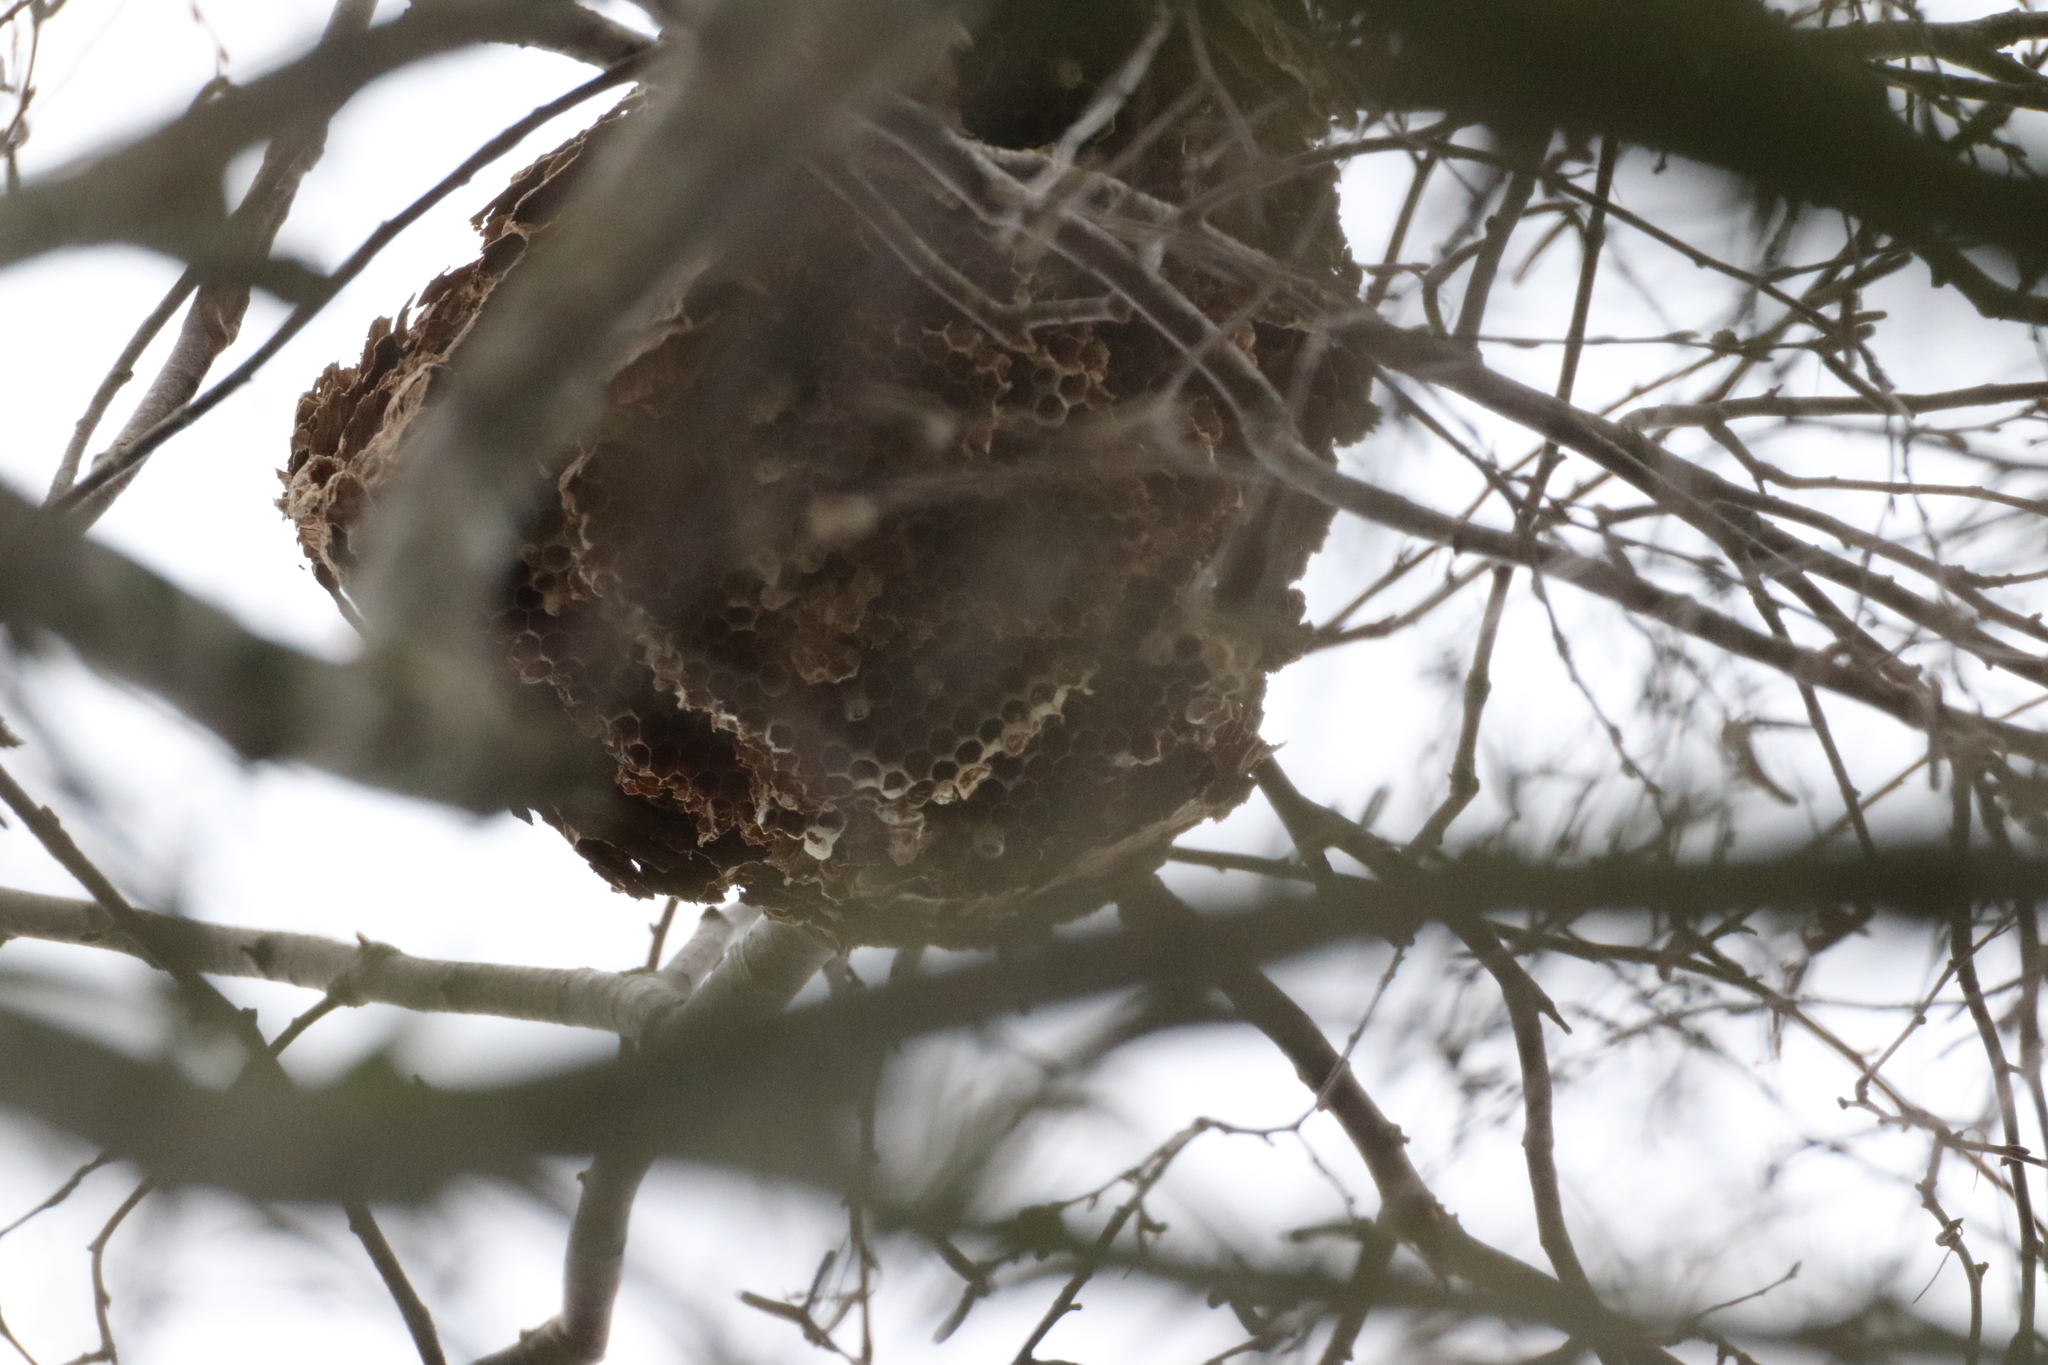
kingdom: Animalia
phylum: Arthropoda
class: Insecta
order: Hymenoptera
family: Vespidae
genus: Vespa
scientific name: Vespa velutina
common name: Asian hornet
